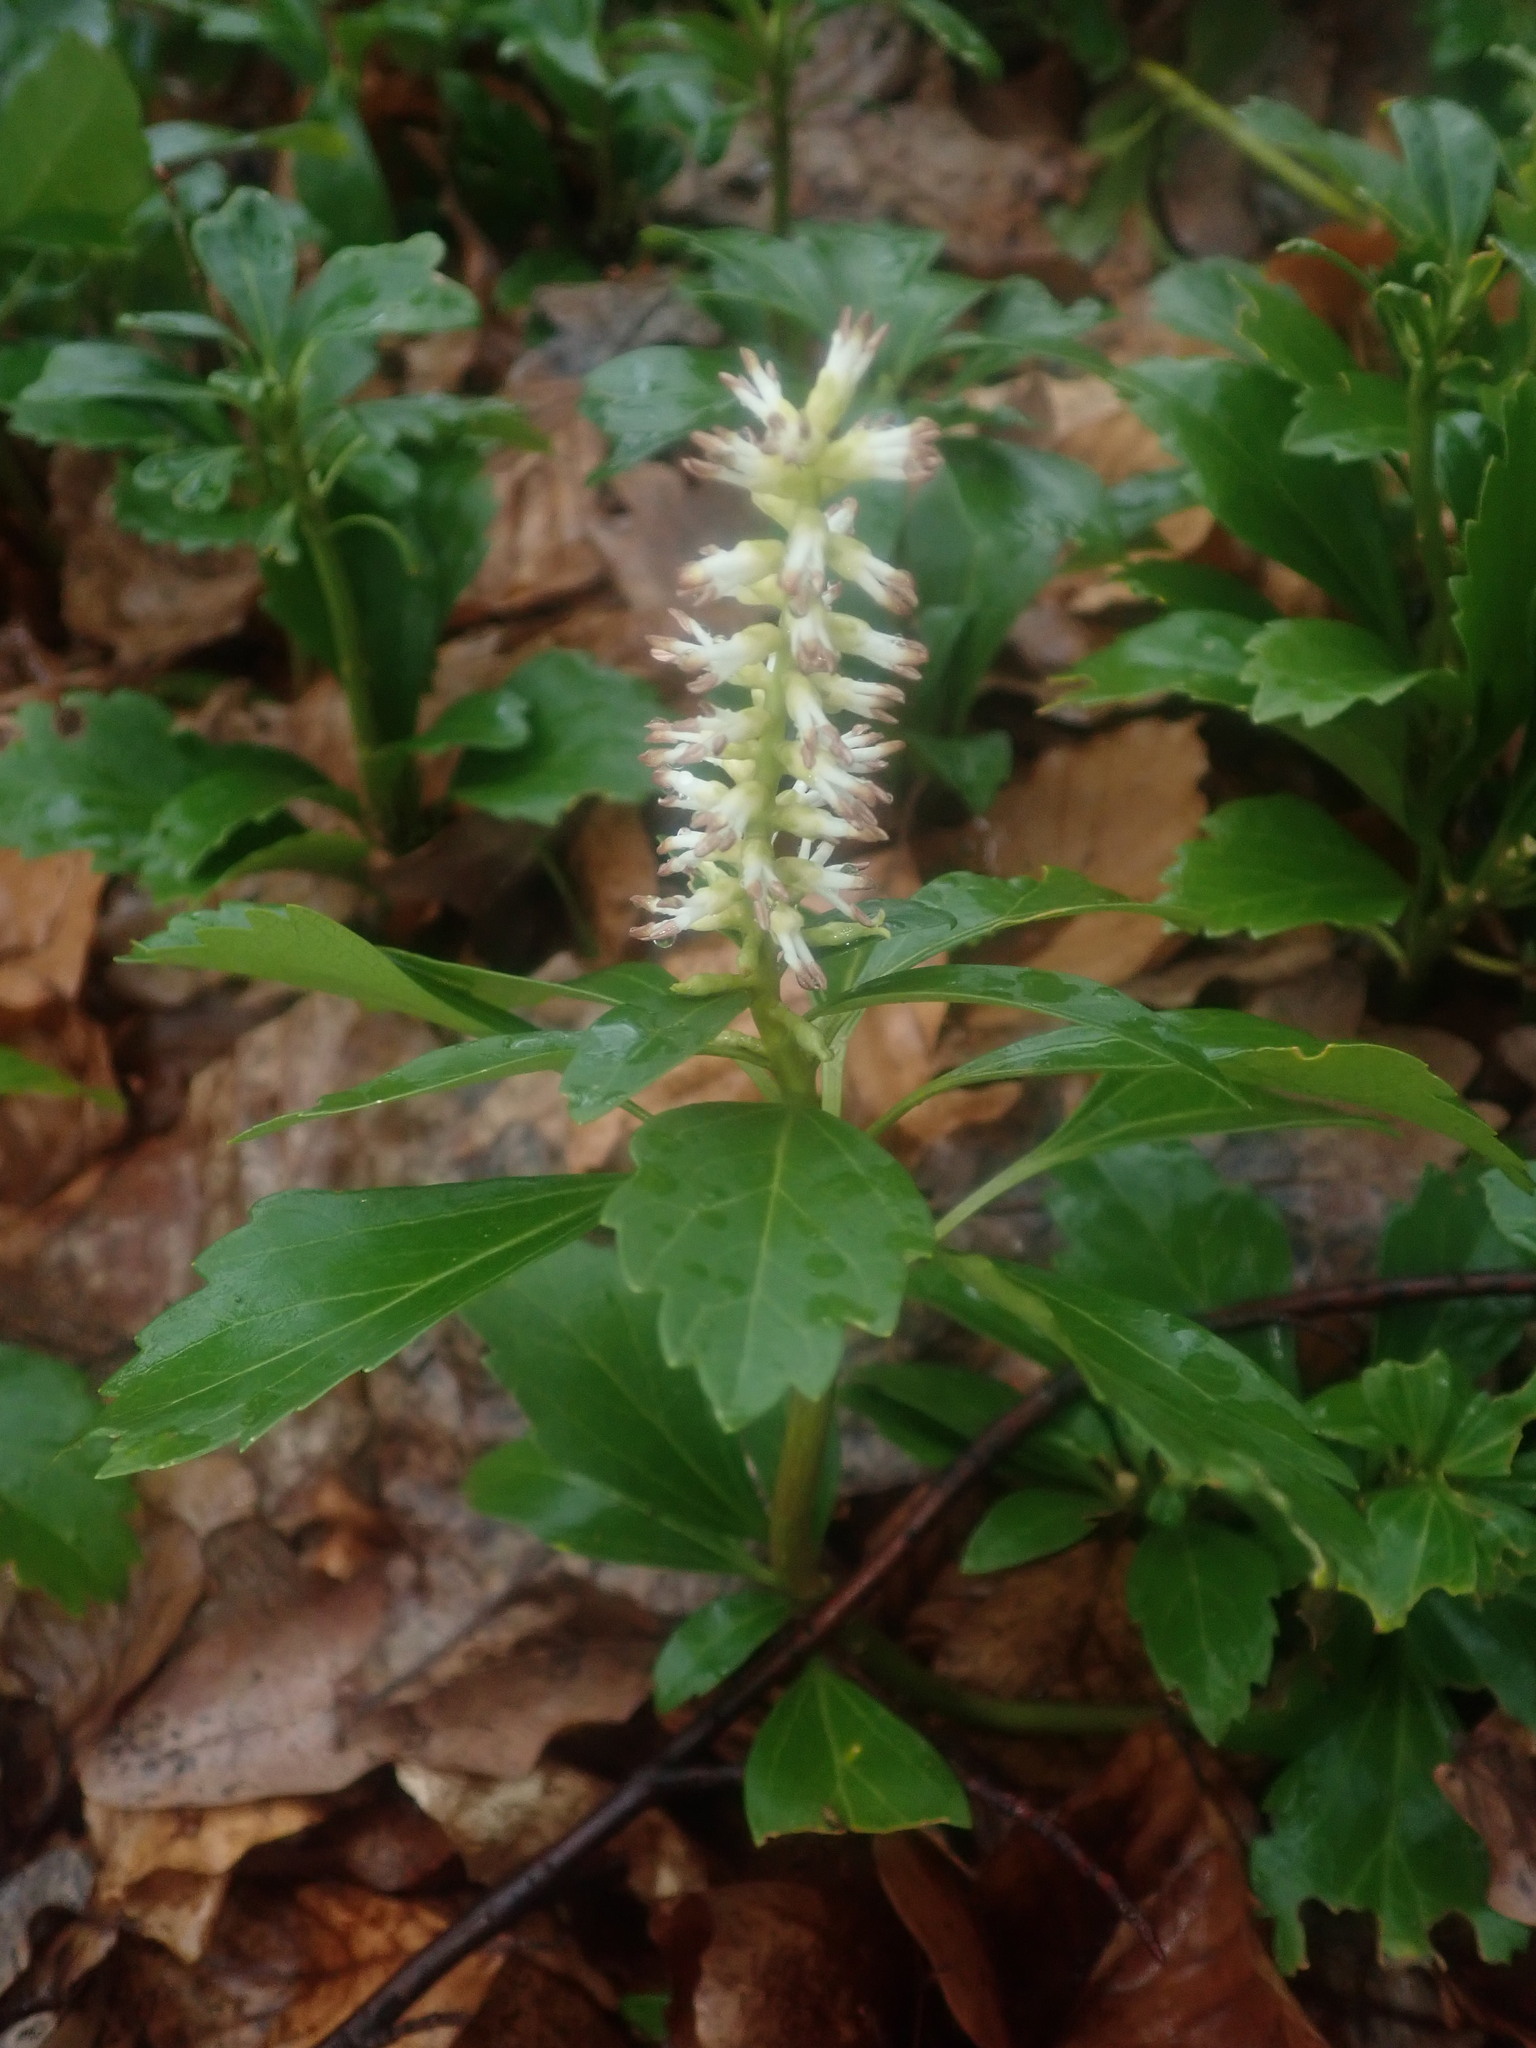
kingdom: Plantae
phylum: Tracheophyta
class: Magnoliopsida
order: Buxales
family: Buxaceae
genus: Pachysandra
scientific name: Pachysandra terminalis
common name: Japanese pachysandra
